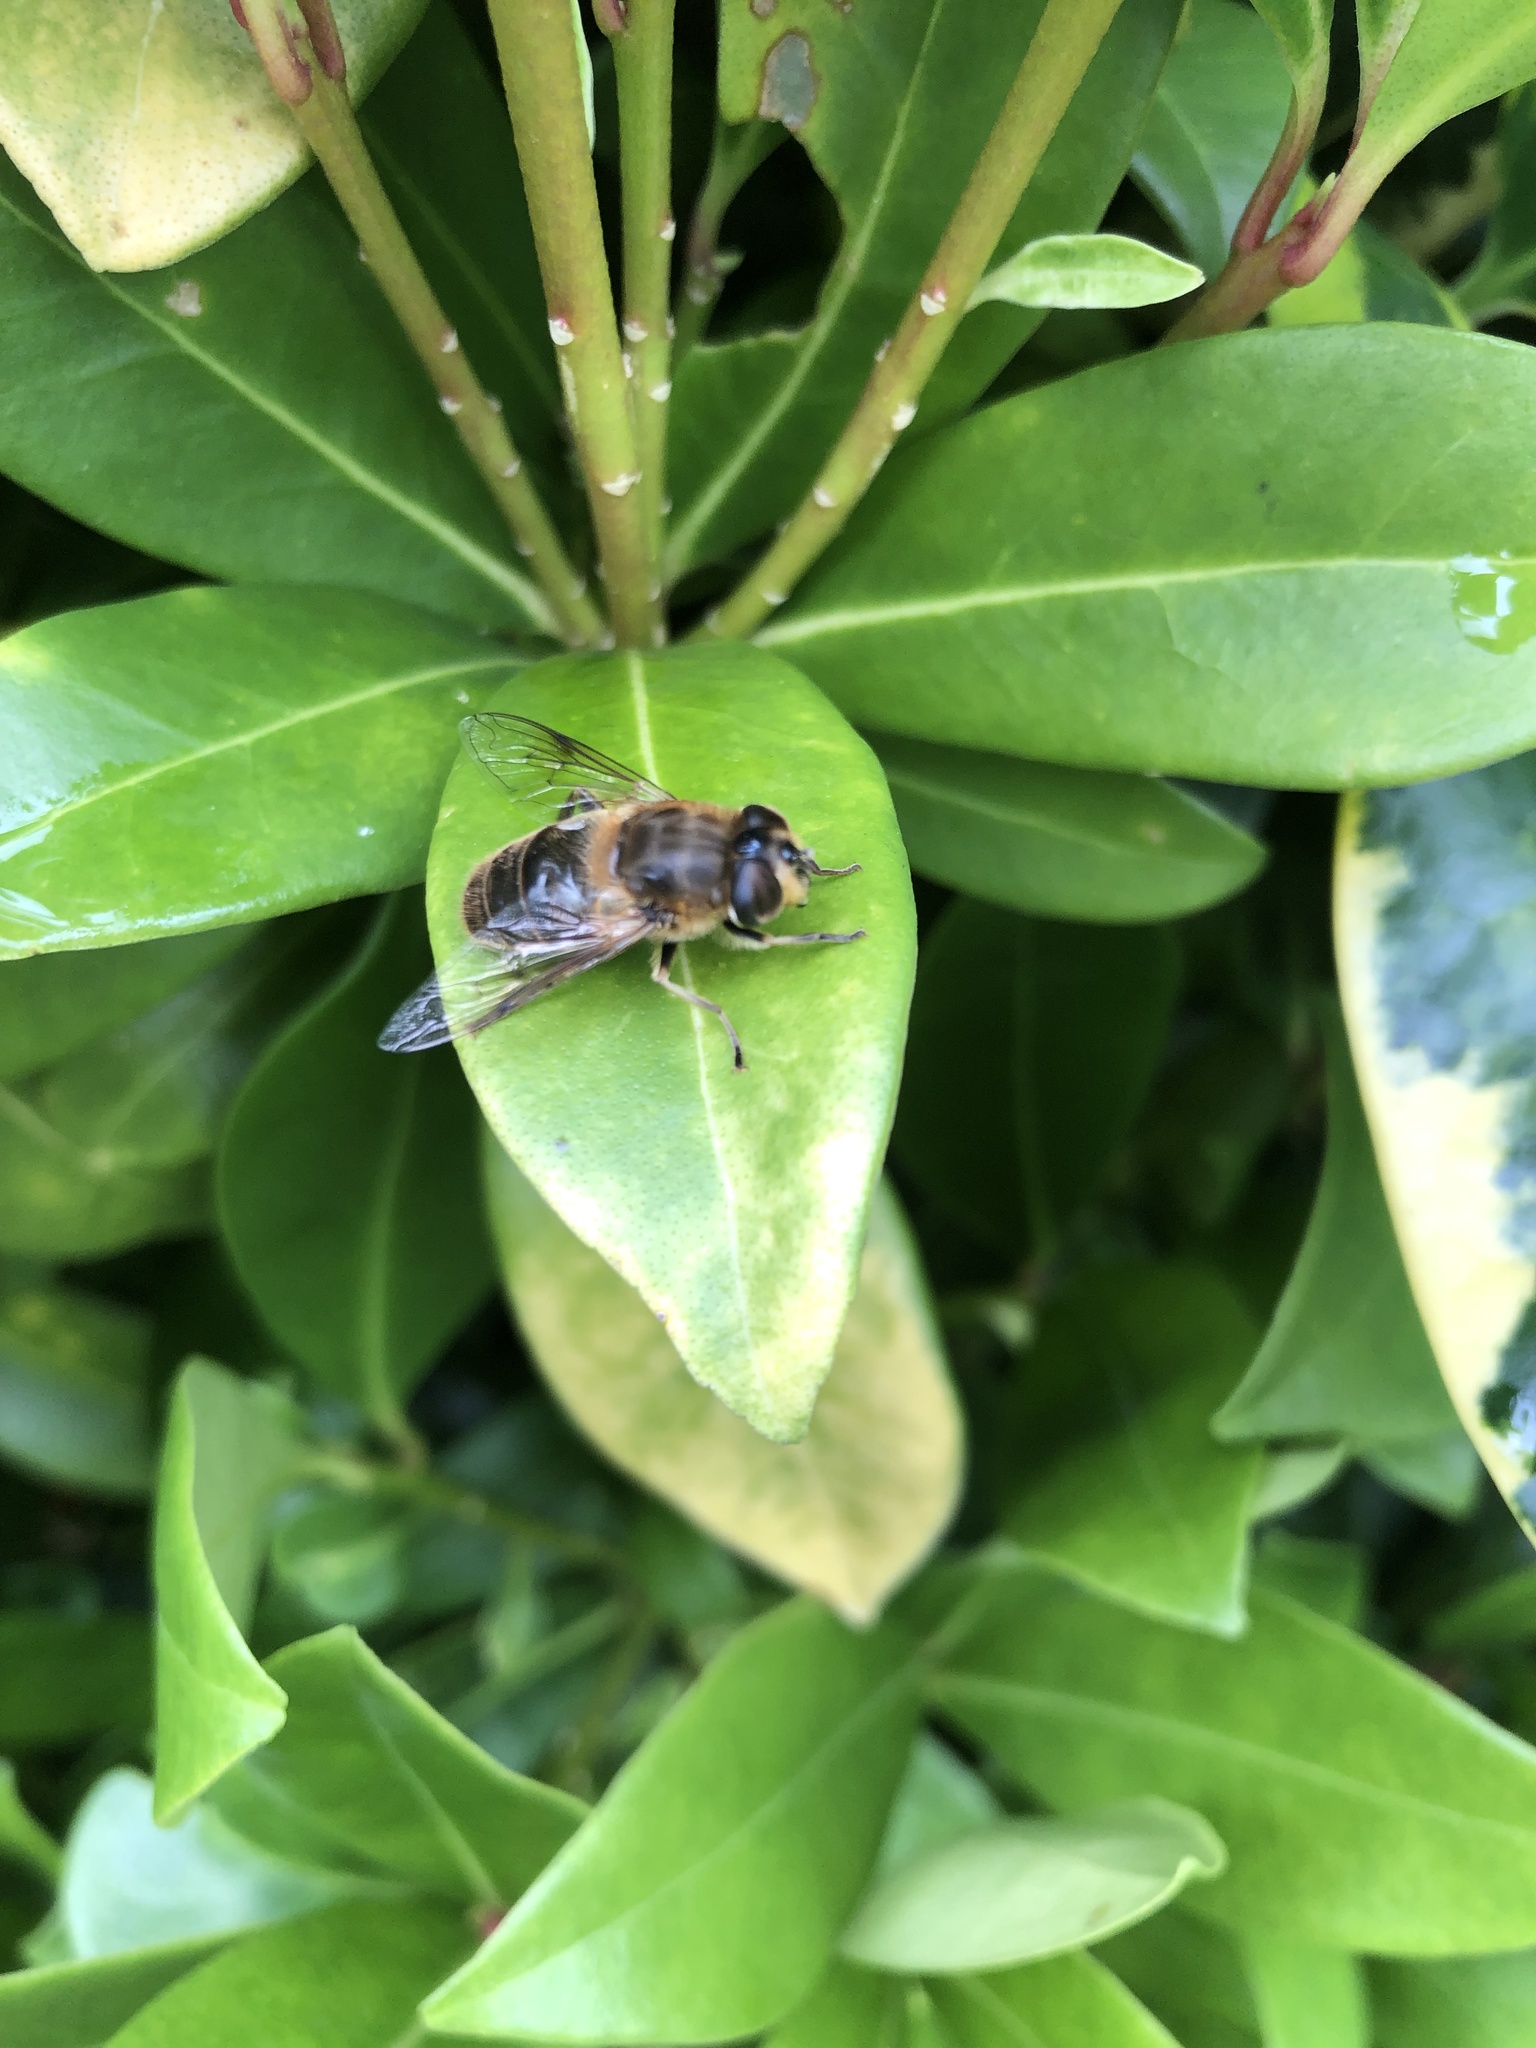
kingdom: Animalia
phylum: Arthropoda
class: Insecta
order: Diptera
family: Syrphidae
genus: Eristalis
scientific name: Eristalis tenax
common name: Drone fly
